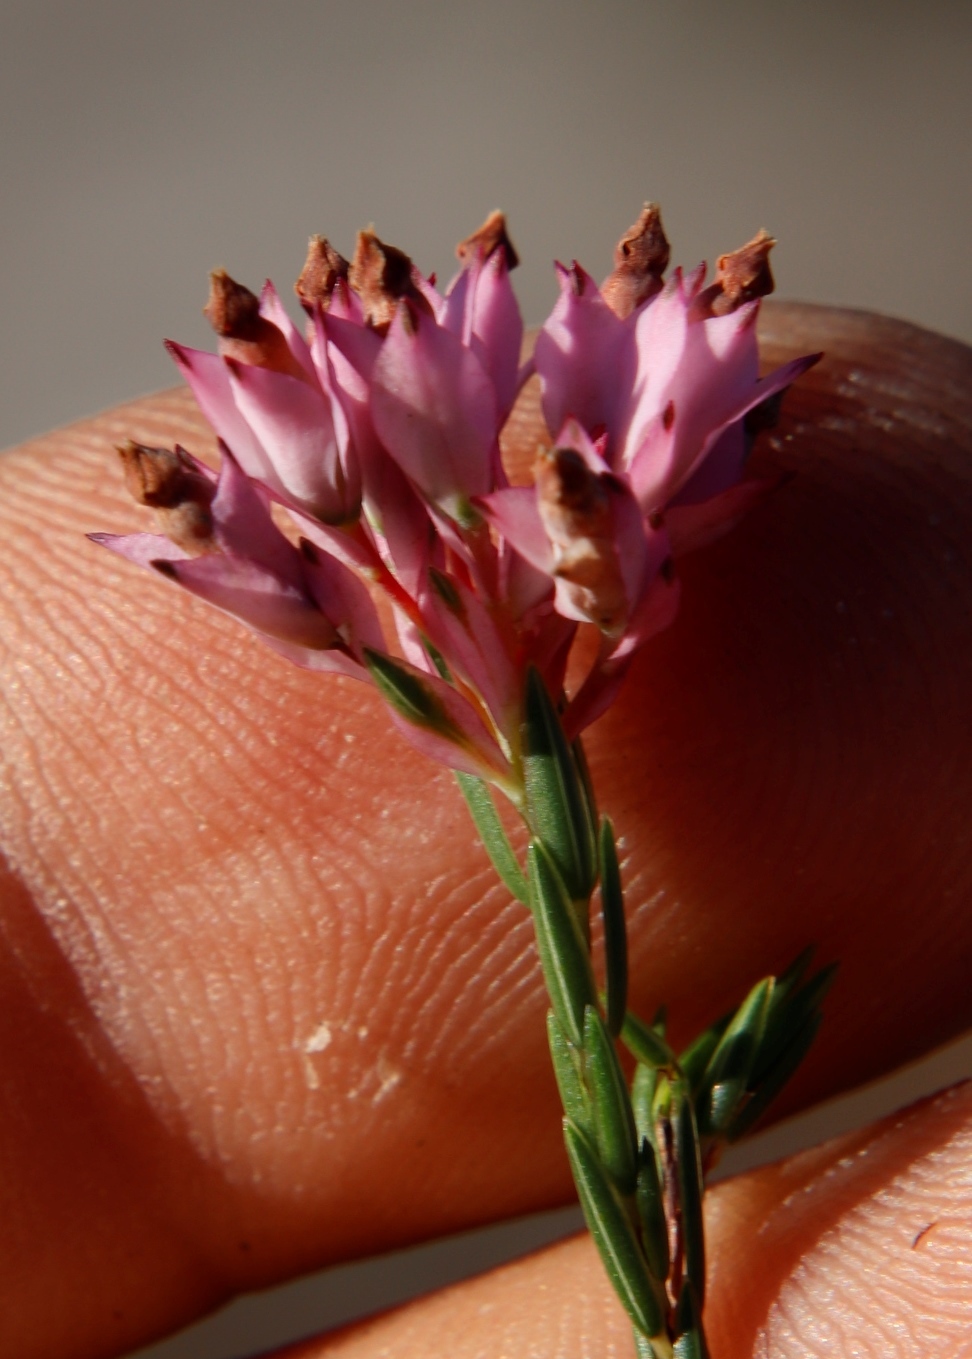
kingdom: Plantae
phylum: Tracheophyta
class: Magnoliopsida
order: Ericales
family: Ericaceae
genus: Erica
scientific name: Erica corifolia
